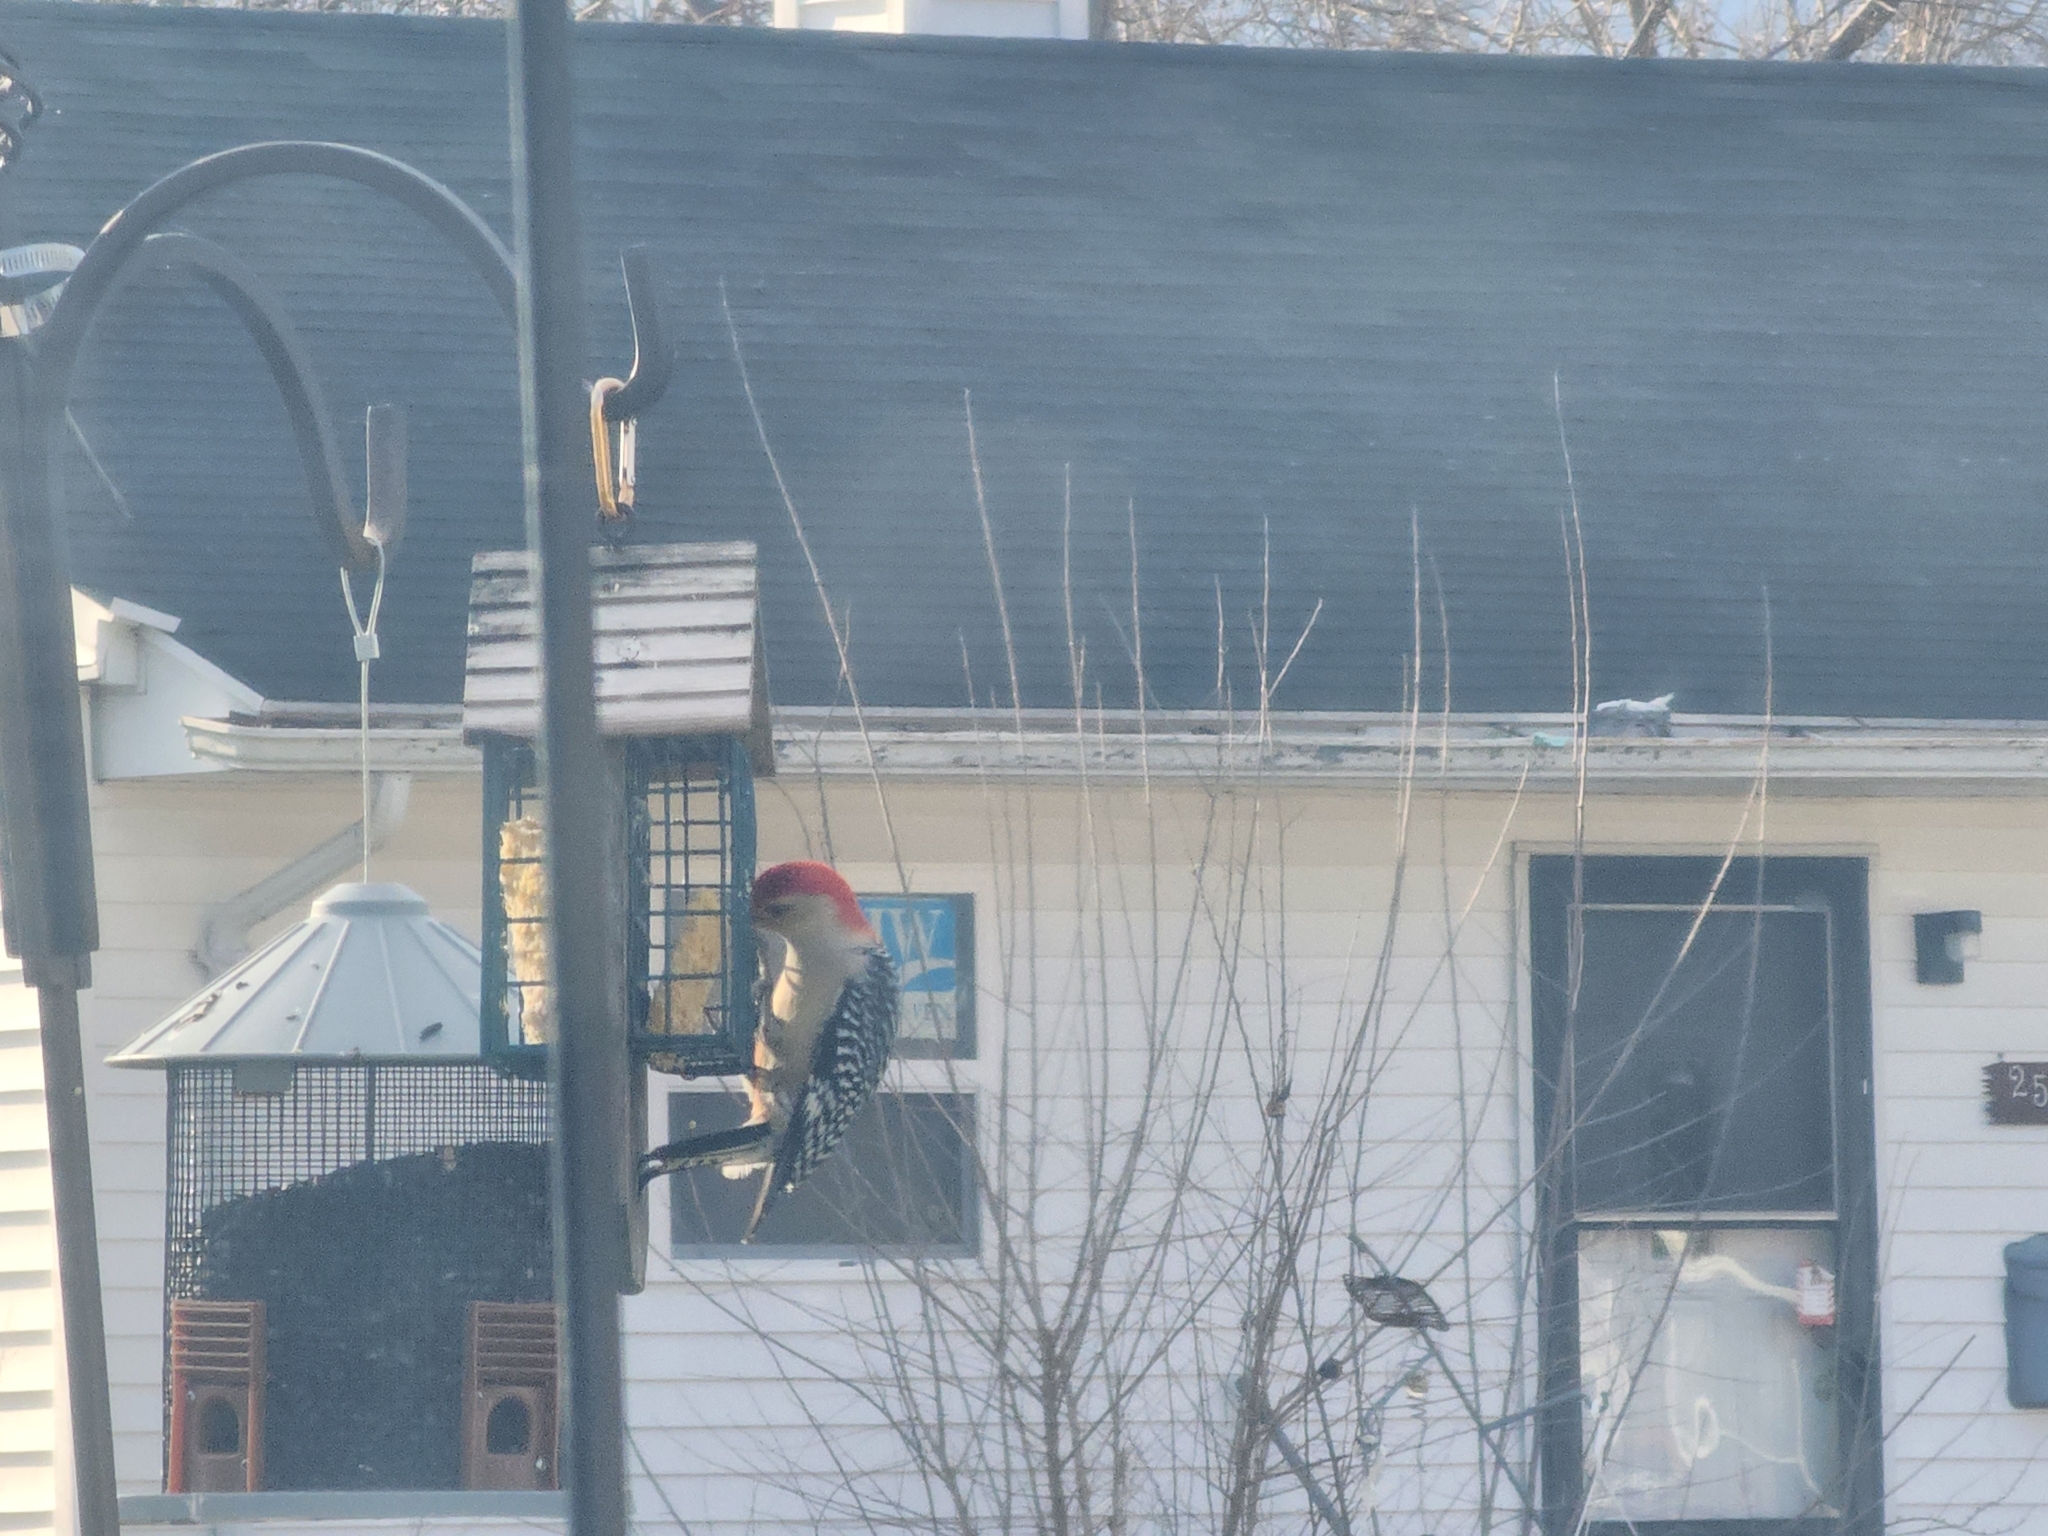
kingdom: Animalia
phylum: Chordata
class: Aves
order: Piciformes
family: Picidae
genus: Melanerpes
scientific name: Melanerpes carolinus
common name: Red-bellied woodpecker
